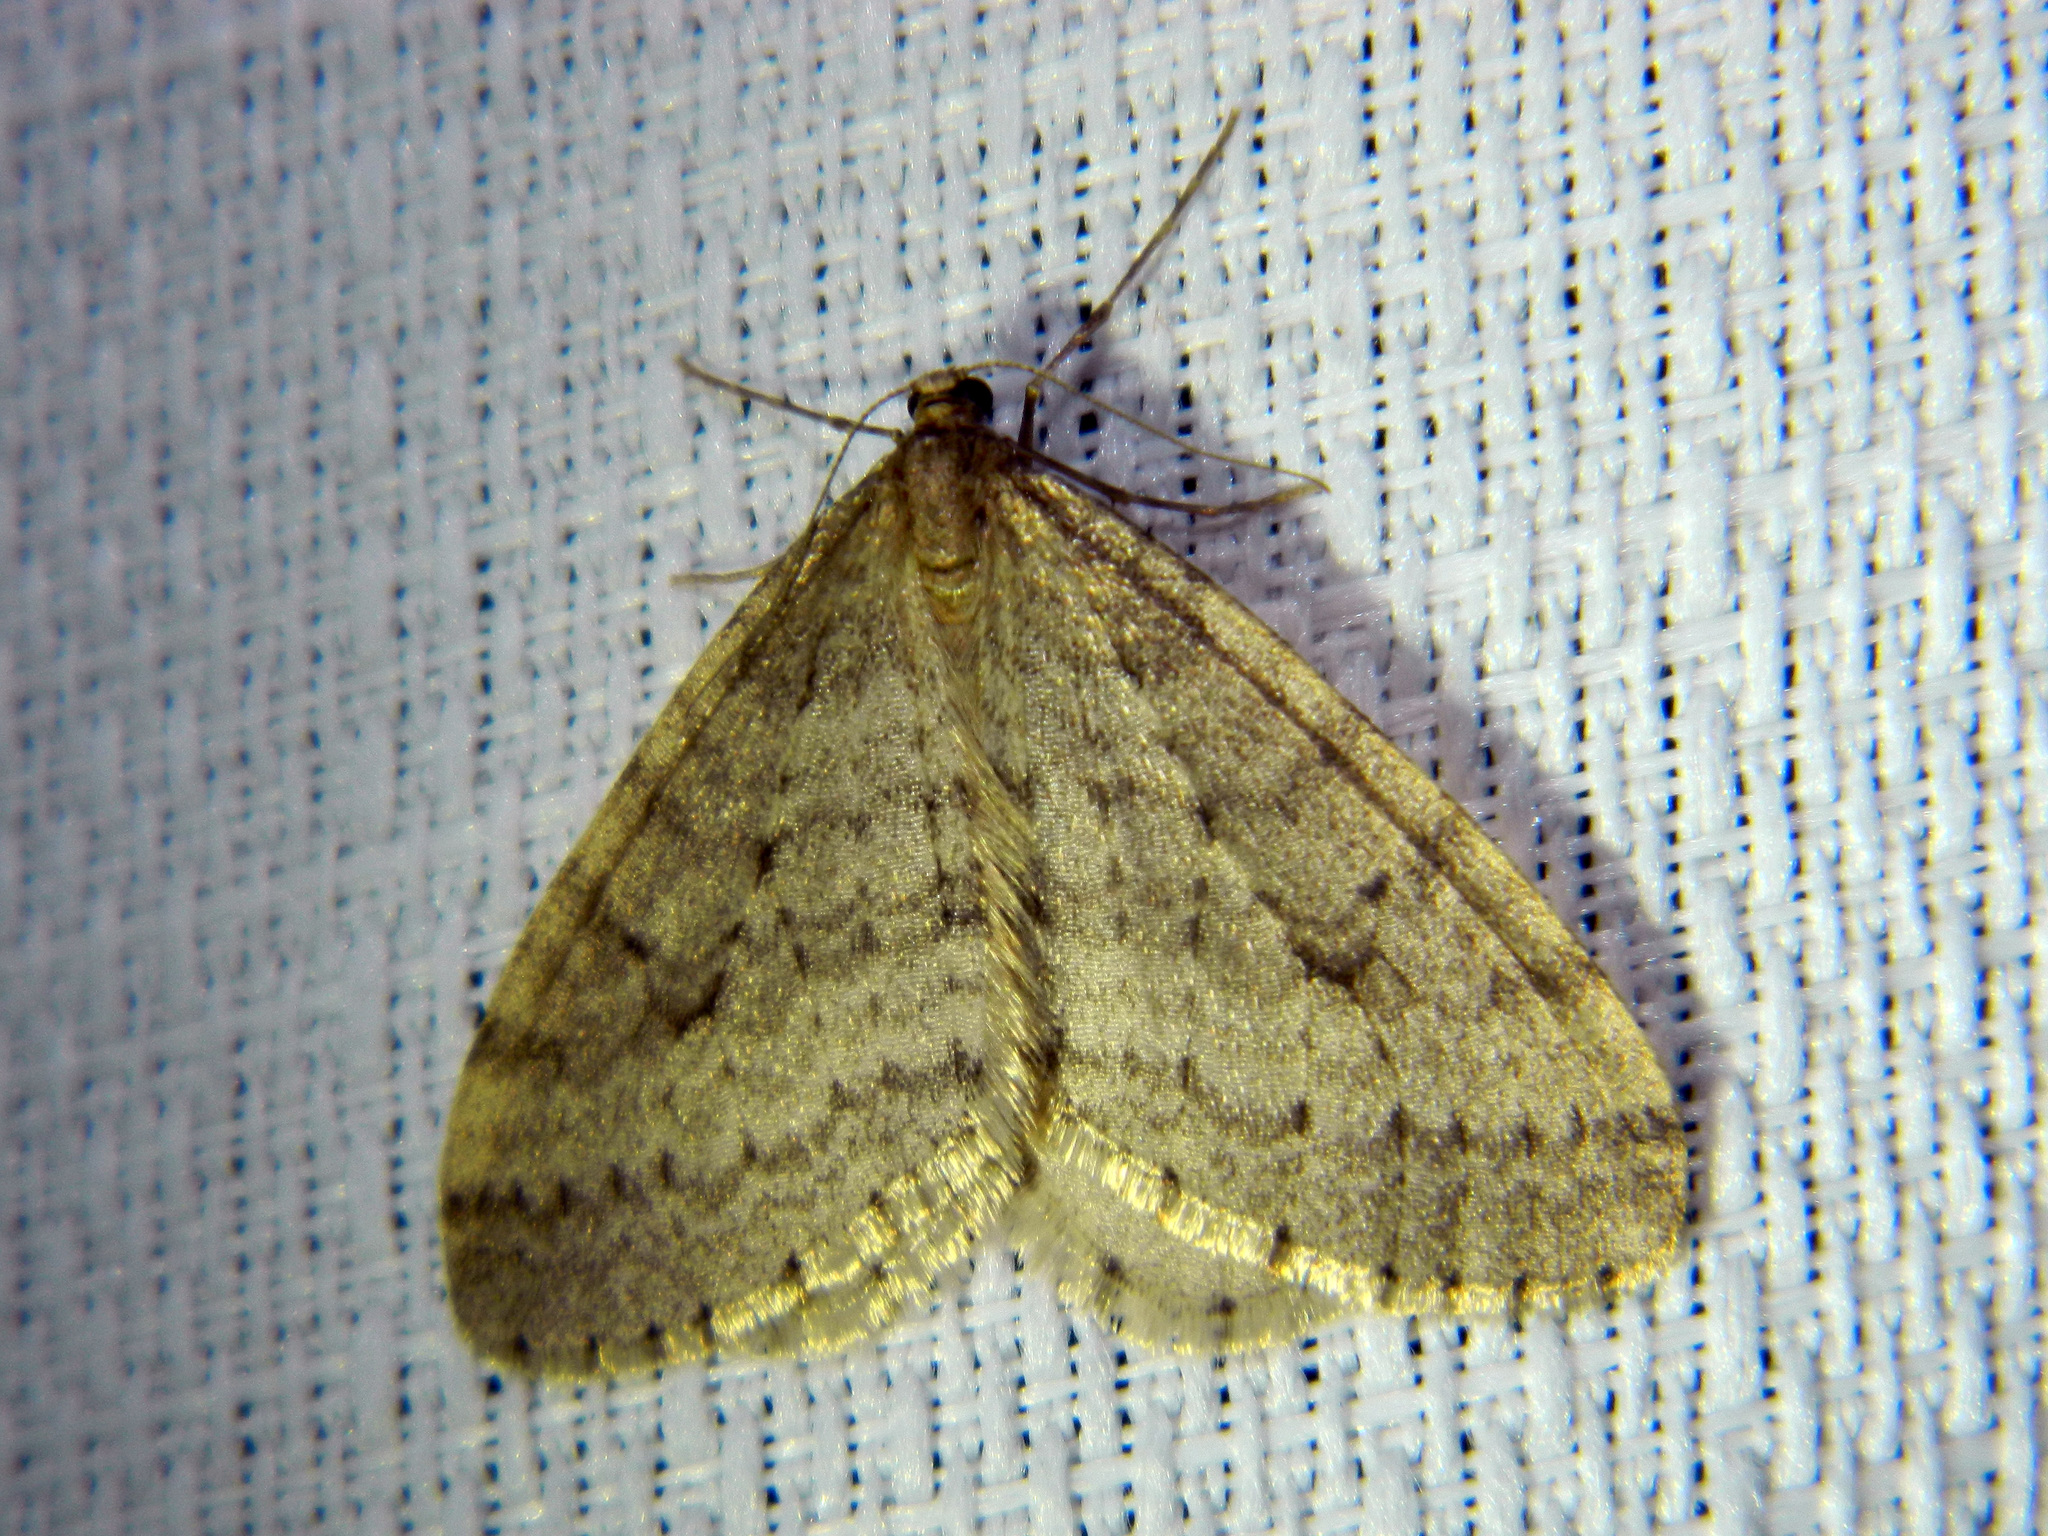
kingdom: Animalia
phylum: Arthropoda
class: Insecta
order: Lepidoptera
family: Geometridae
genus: Operophtera
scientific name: Operophtera bruceata
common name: Bruce spanworm
